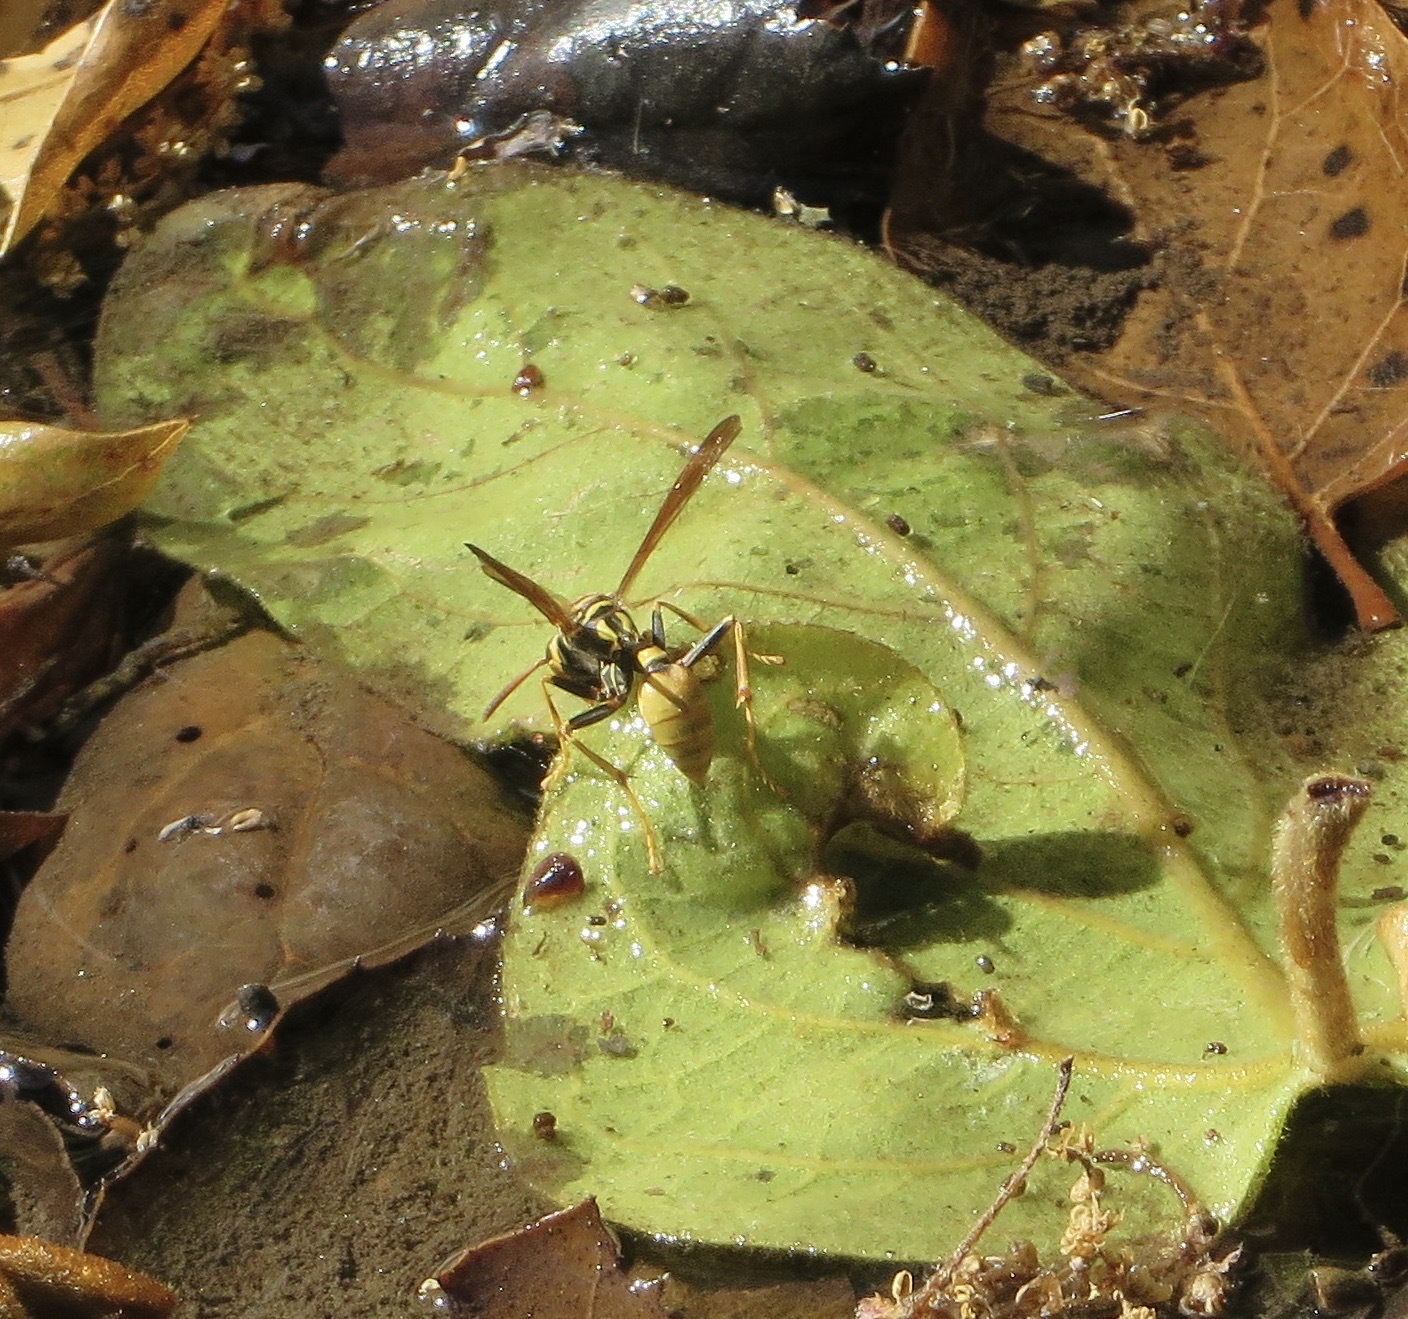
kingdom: Animalia
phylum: Arthropoda
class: Insecta
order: Hymenoptera
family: Vespidae
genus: Mischocyttarus
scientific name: Mischocyttarus flavitarsis
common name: Wasp
